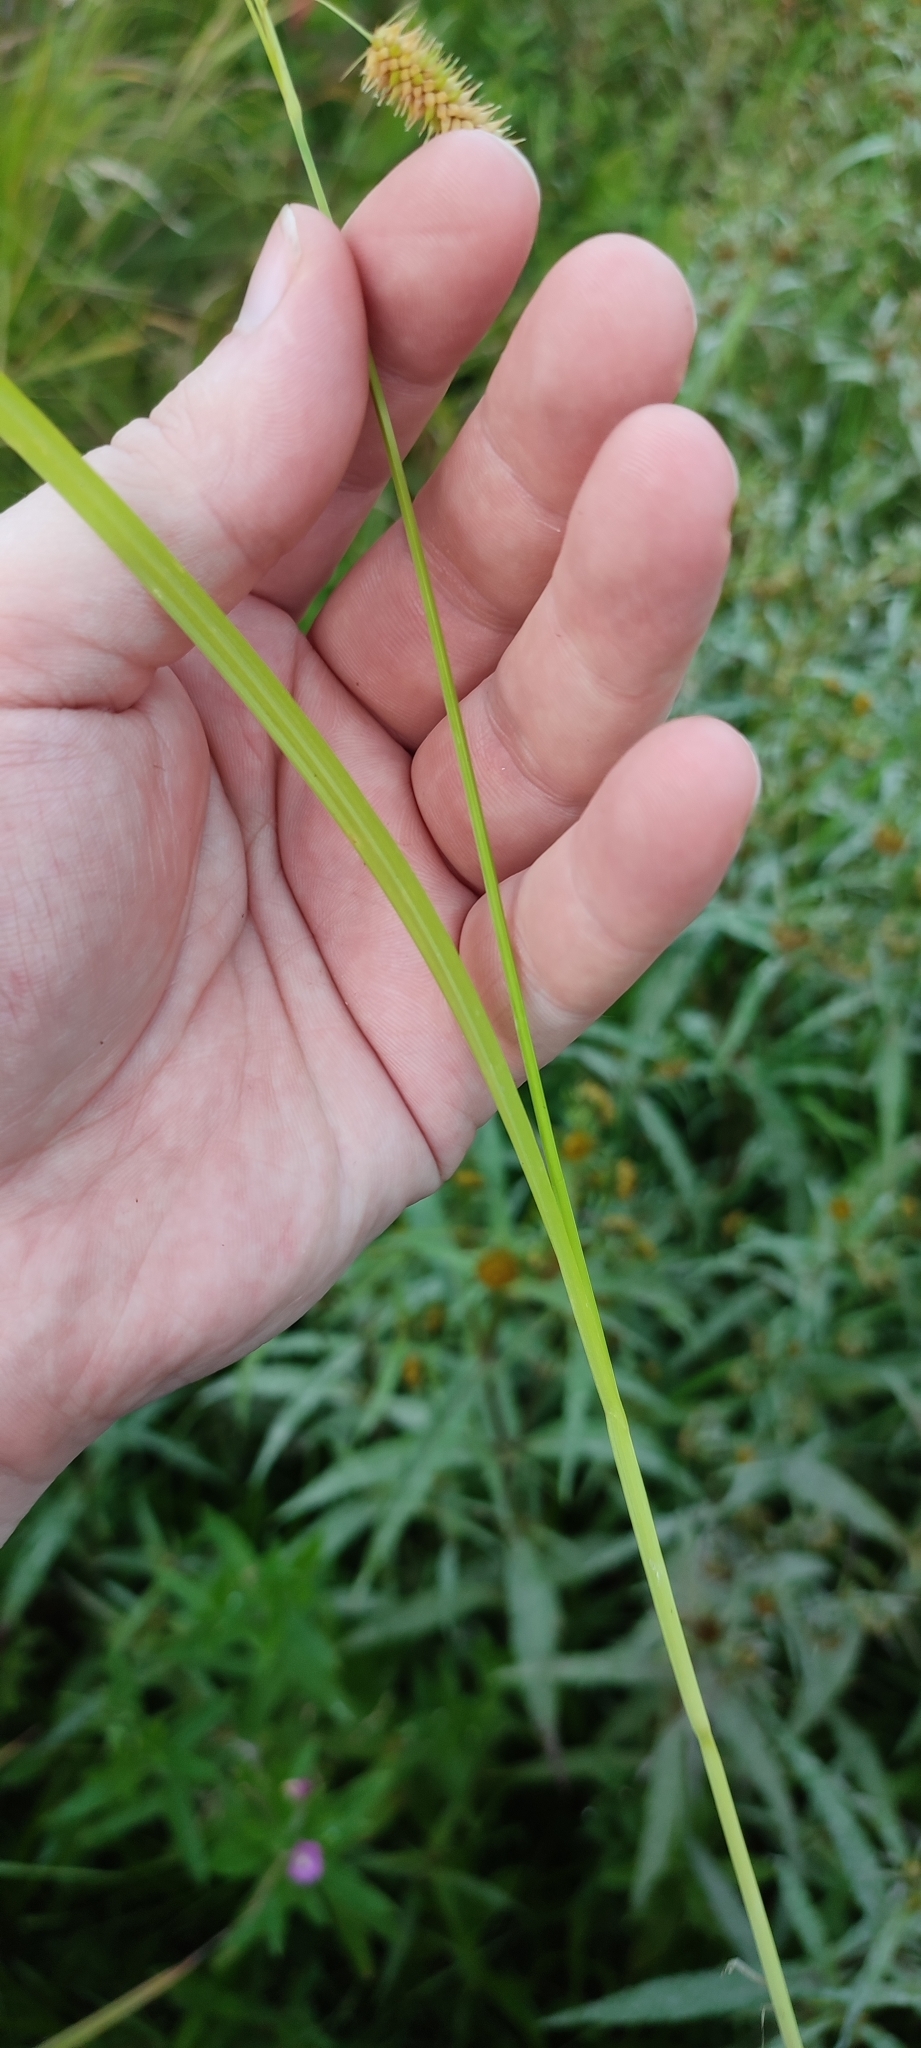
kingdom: Plantae
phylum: Tracheophyta
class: Liliopsida
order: Poales
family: Cyperaceae
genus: Carex
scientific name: Carex pseudocyperus
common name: Cyperus sedge
